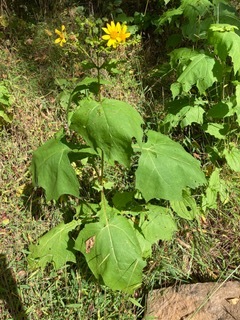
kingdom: Plantae
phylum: Tracheophyta
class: Magnoliopsida
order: Asterales
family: Asteraceae
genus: Smallanthus
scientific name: Smallanthus uvedalia
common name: Bear's-foot
